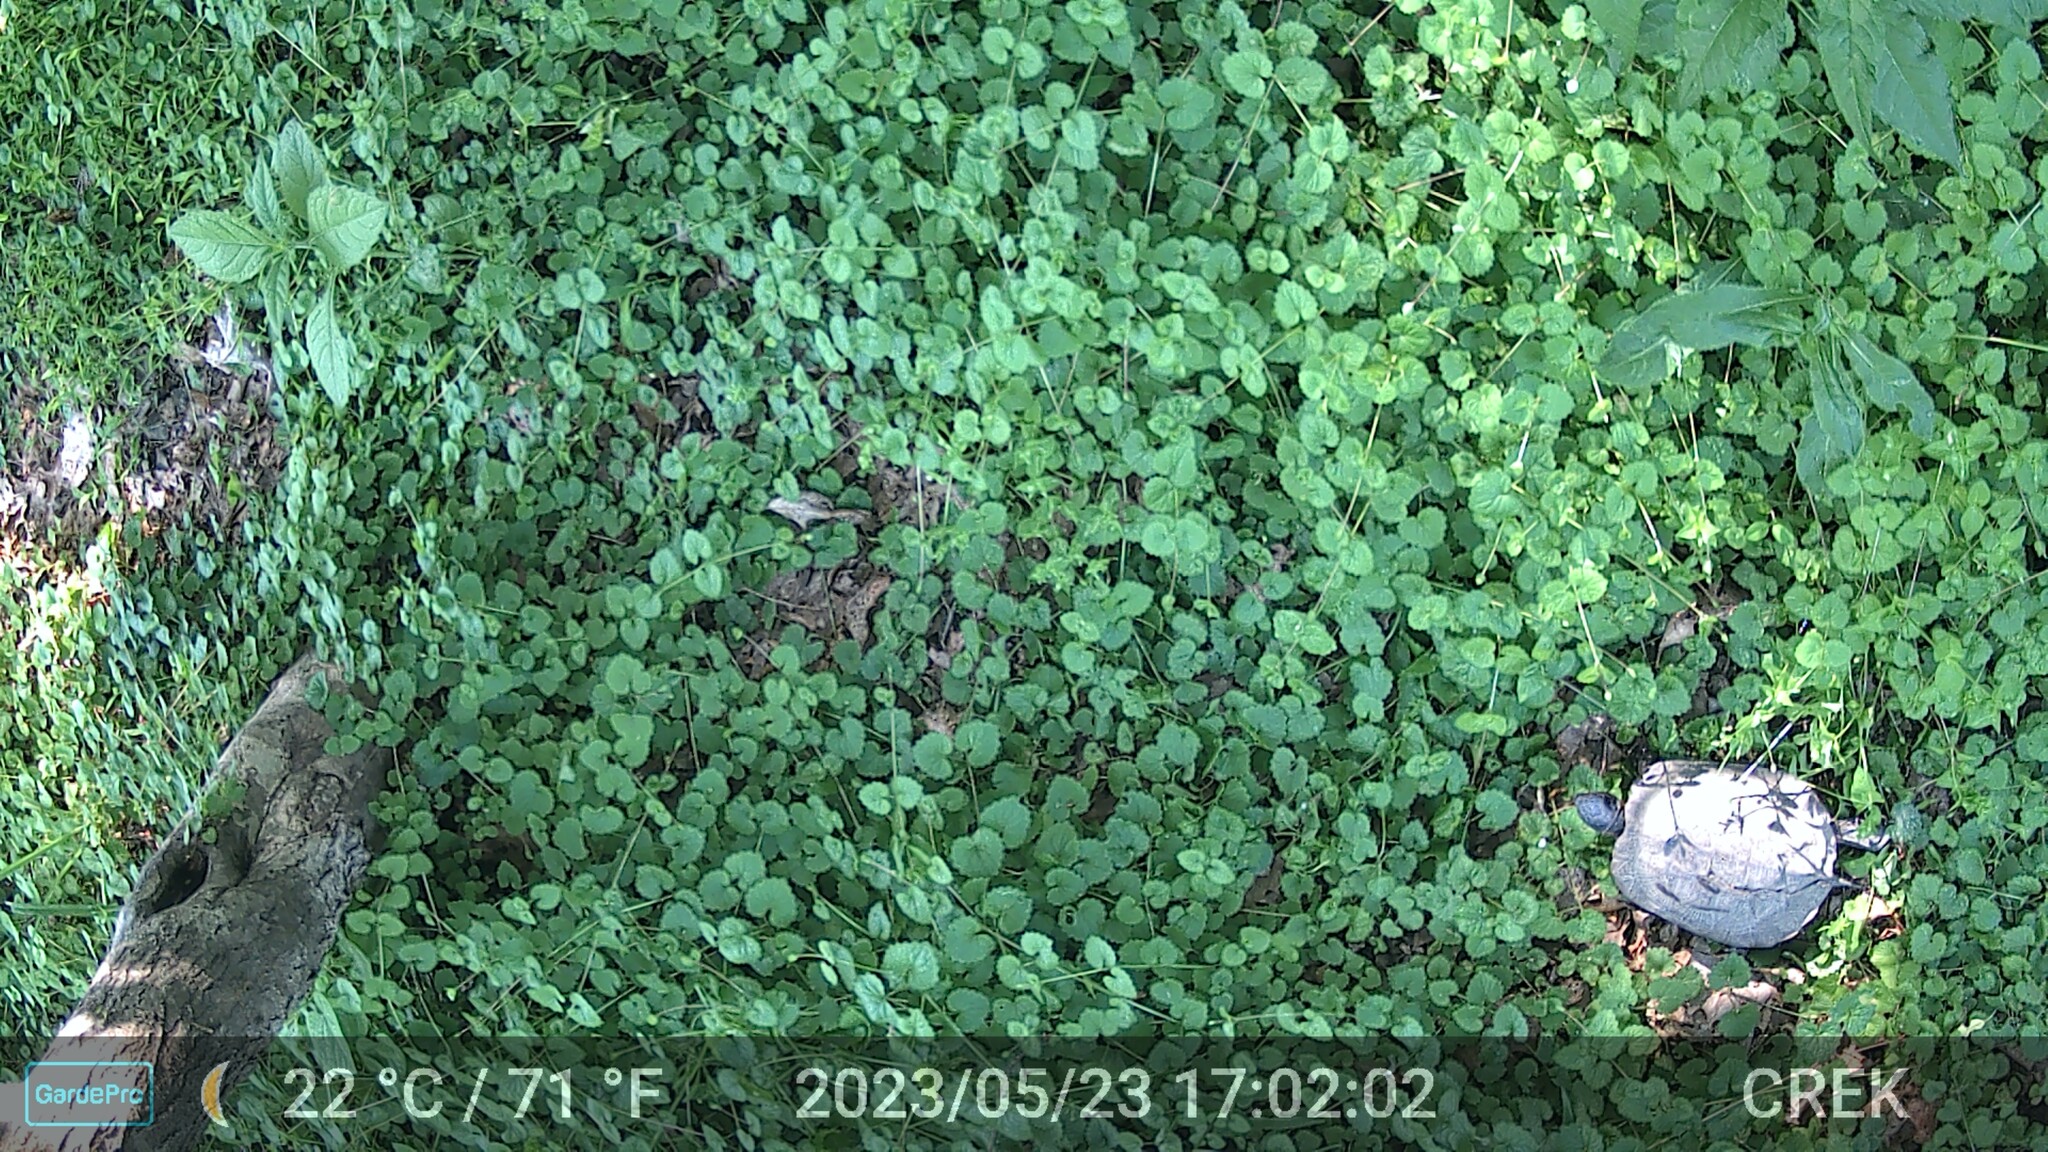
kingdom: Animalia
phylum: Chordata
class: Testudines
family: Emydidae
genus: Glyptemys
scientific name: Glyptemys insculpta
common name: Wood turtle
